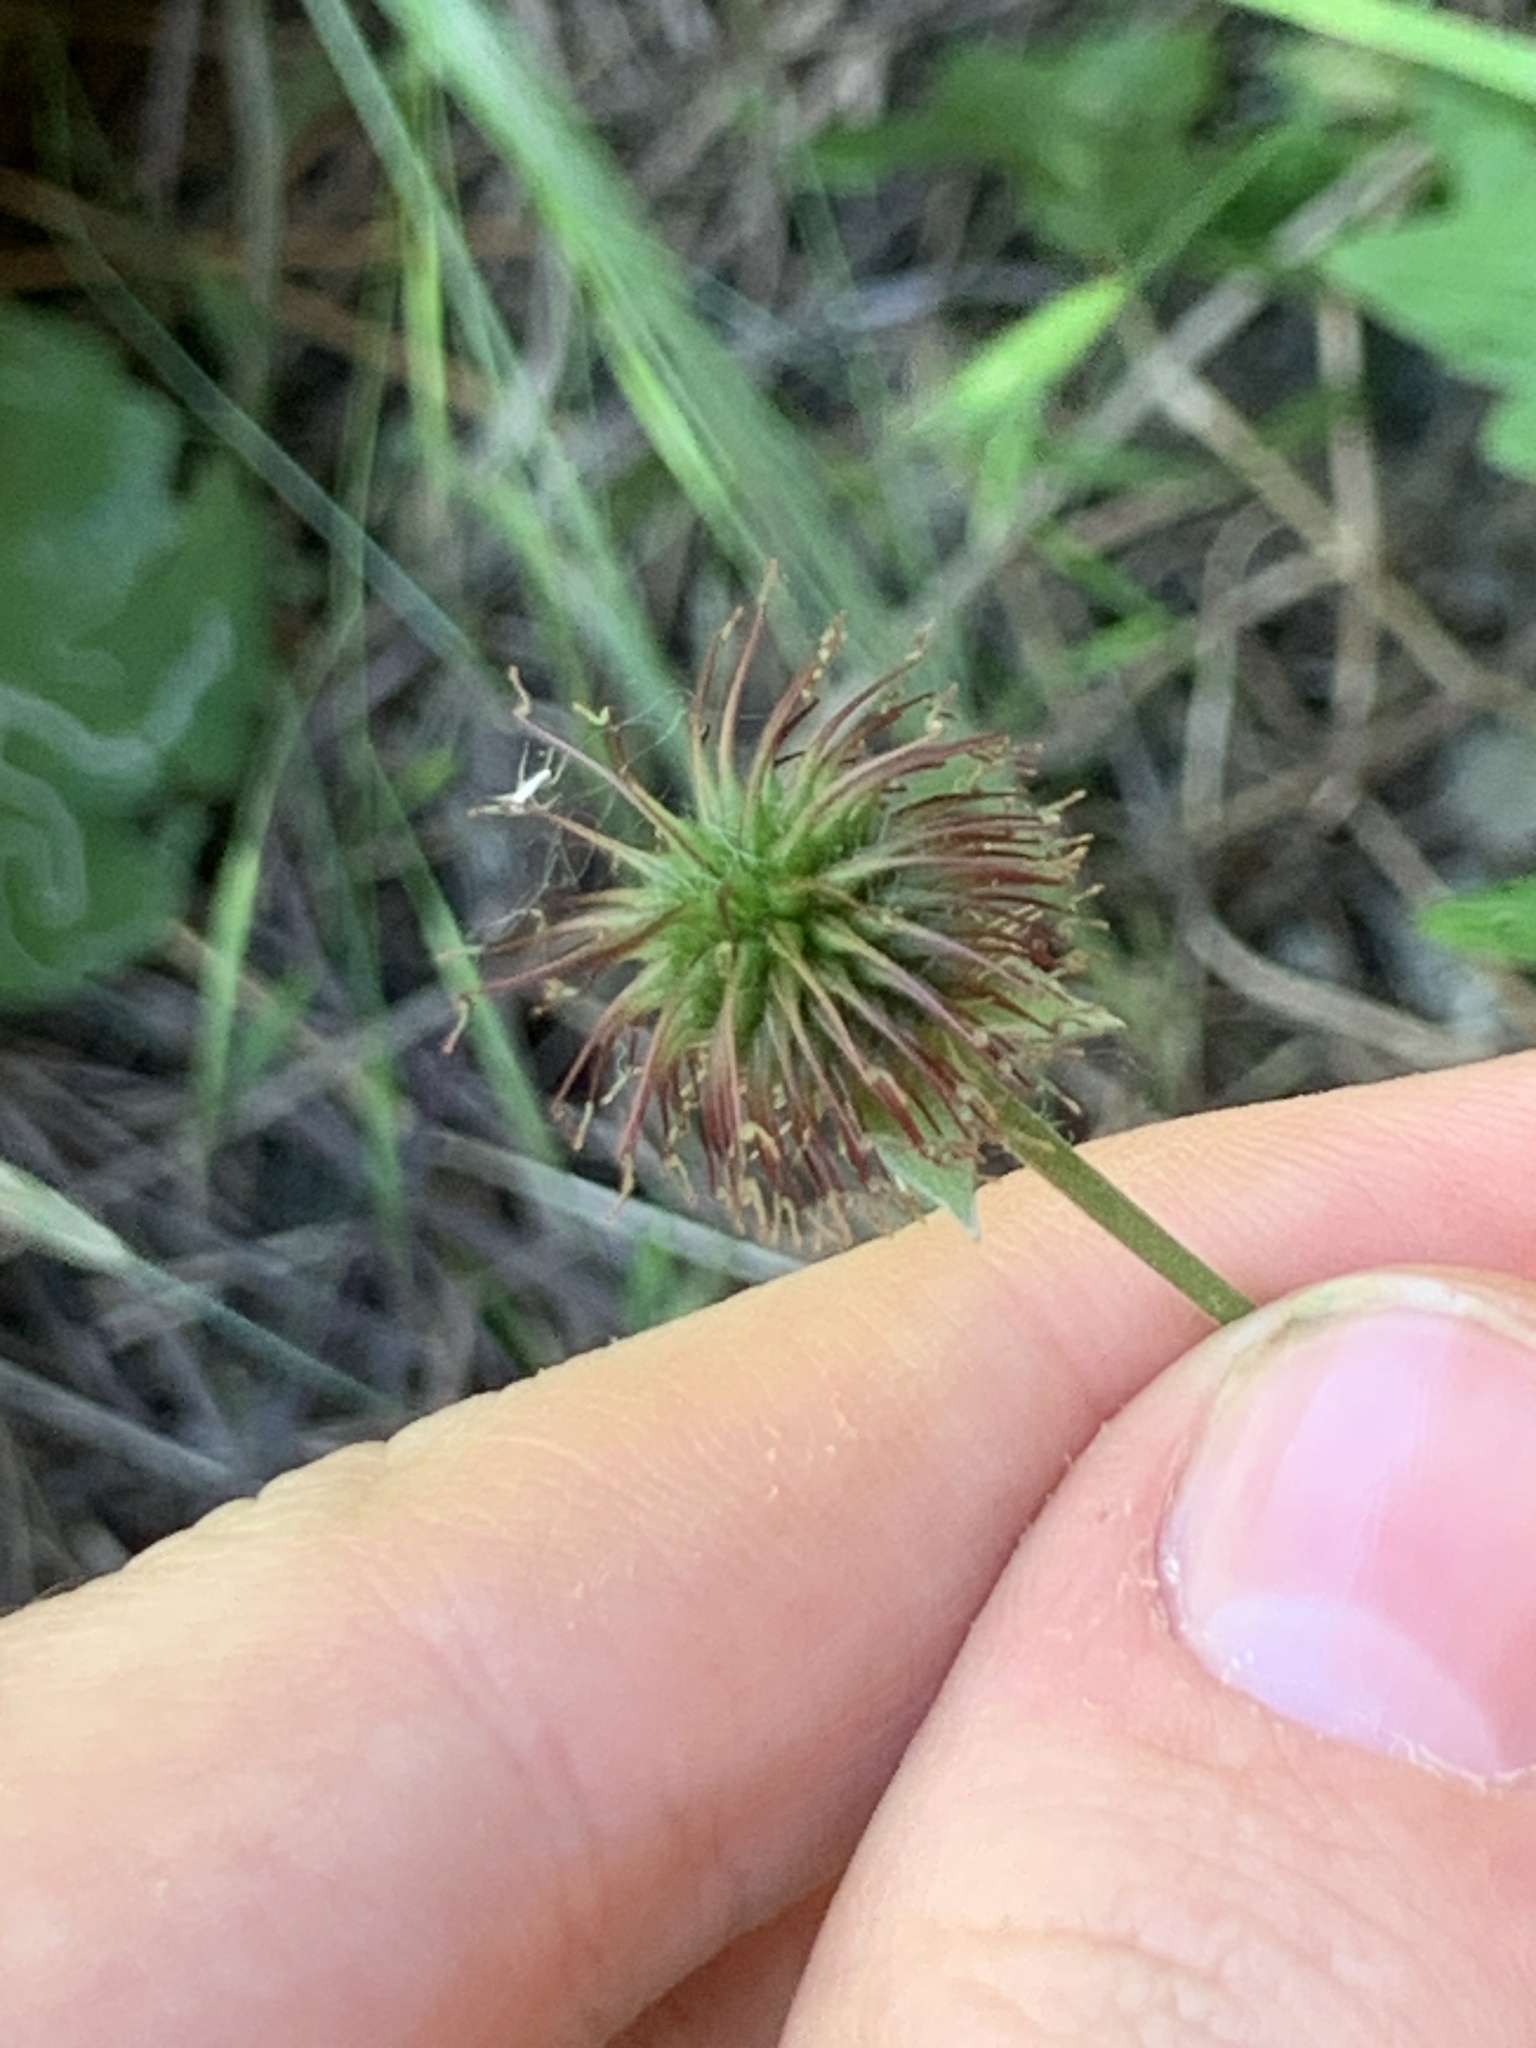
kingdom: Plantae
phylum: Tracheophyta
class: Magnoliopsida
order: Rosales
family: Rosaceae
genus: Geum
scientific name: Geum urbanum
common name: Wood avens
